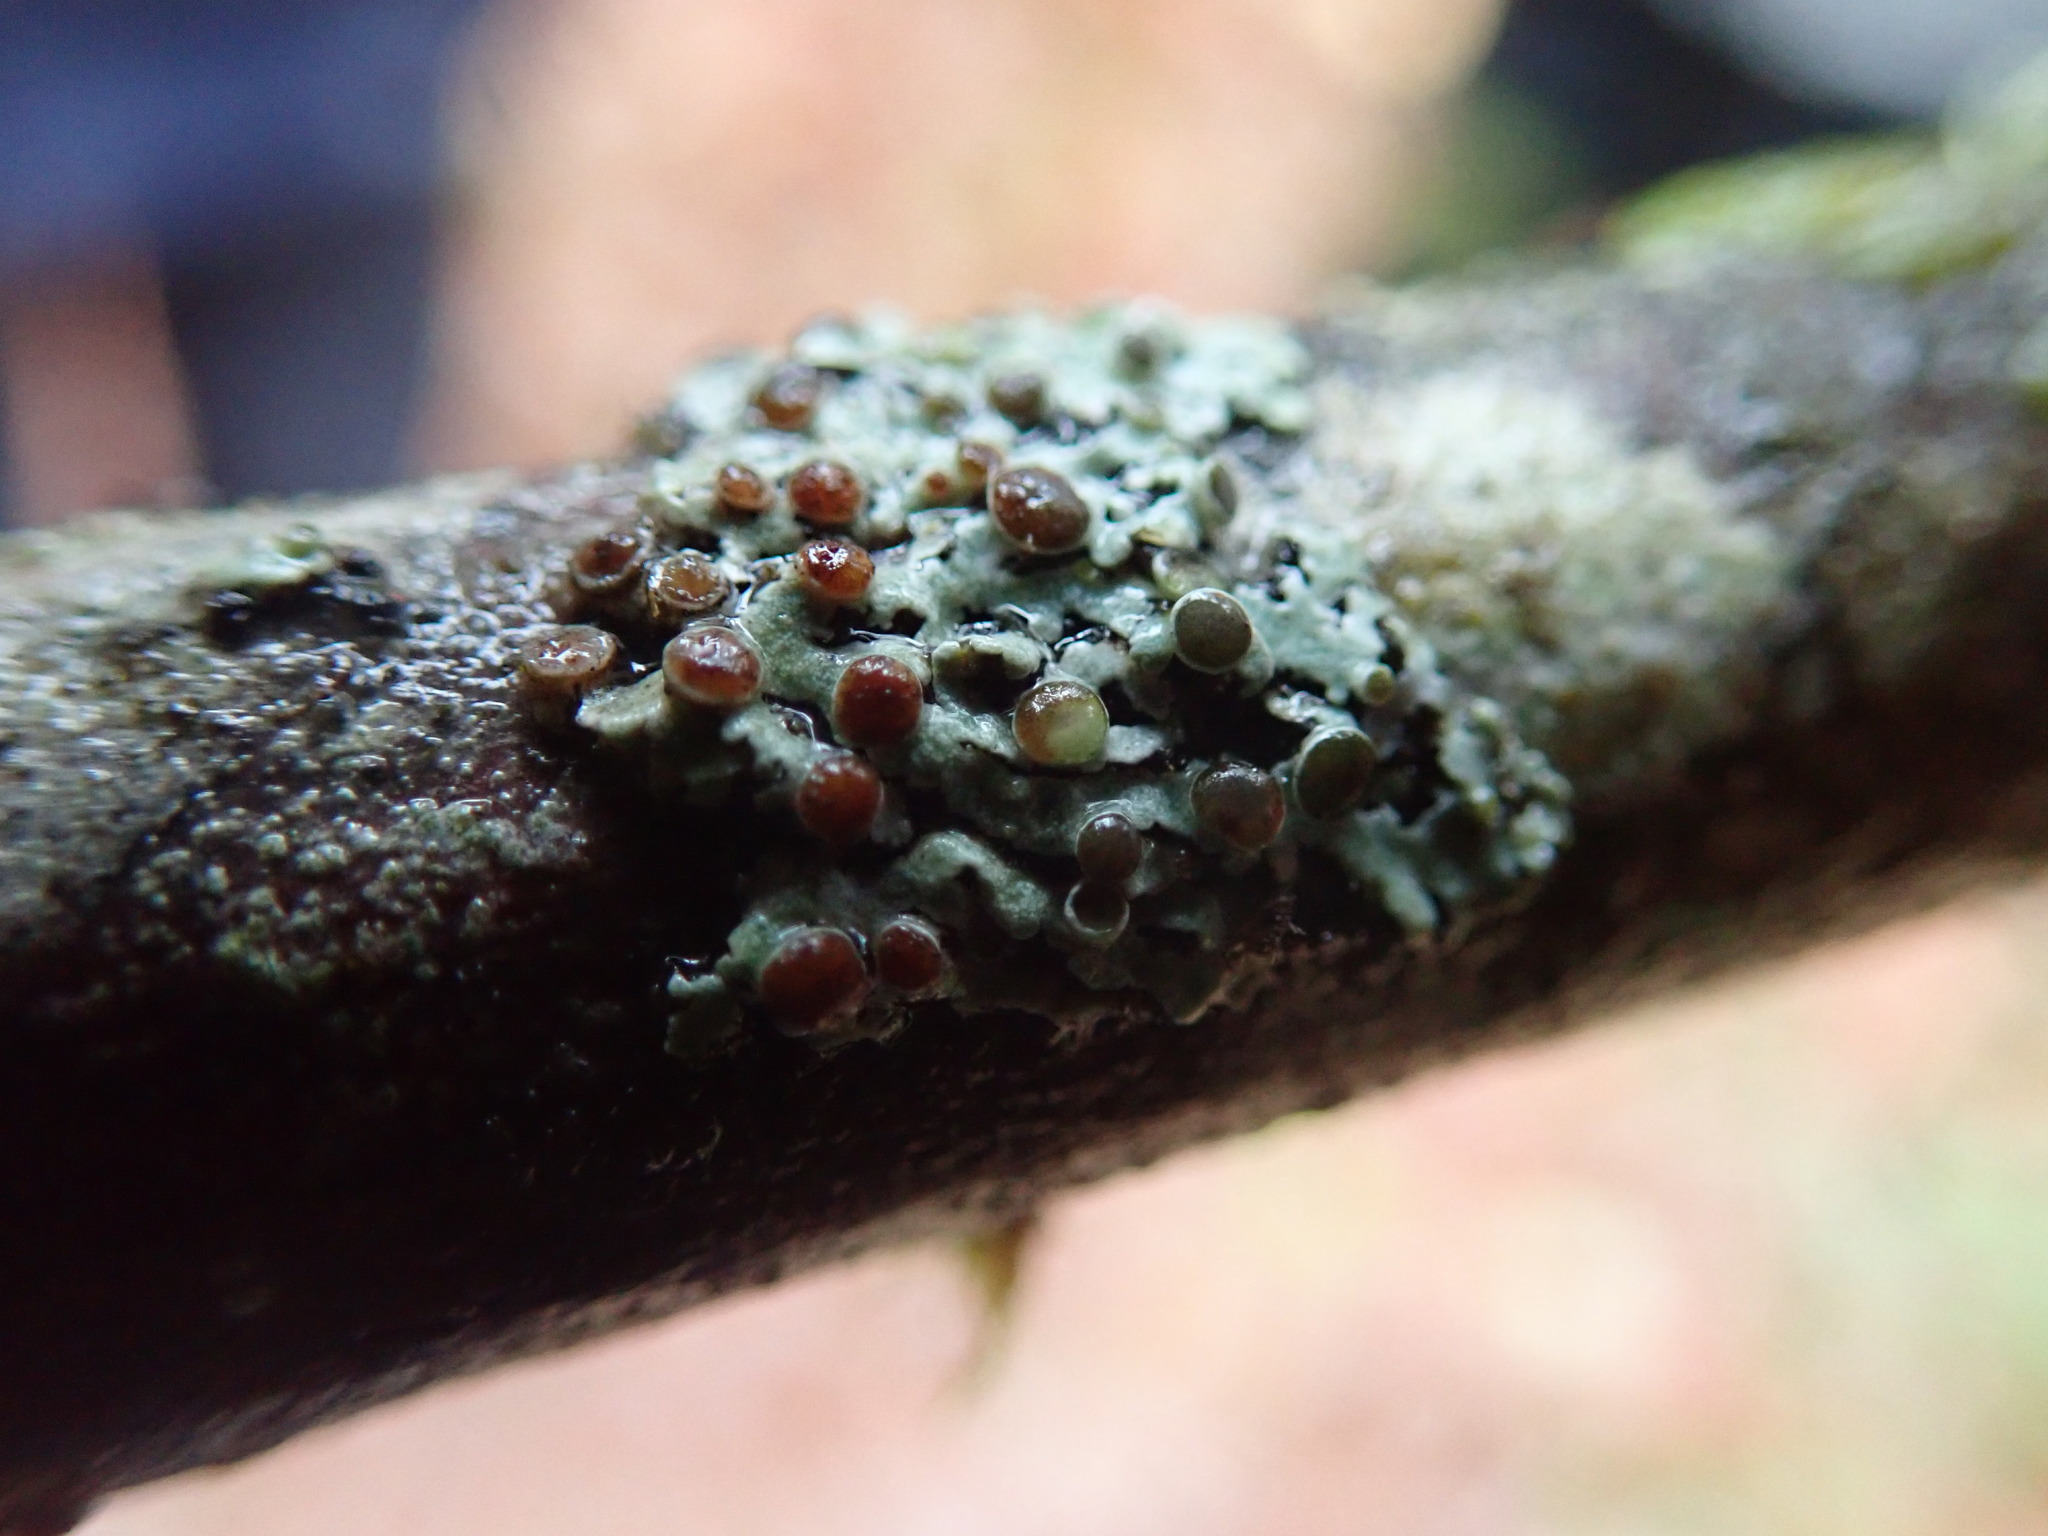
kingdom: Fungi
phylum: Ascomycota
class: Lecanoromycetes
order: Caliciales
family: Physciaceae
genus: Physcia
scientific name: Physcia aipolia
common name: Hoary rosette lichen
